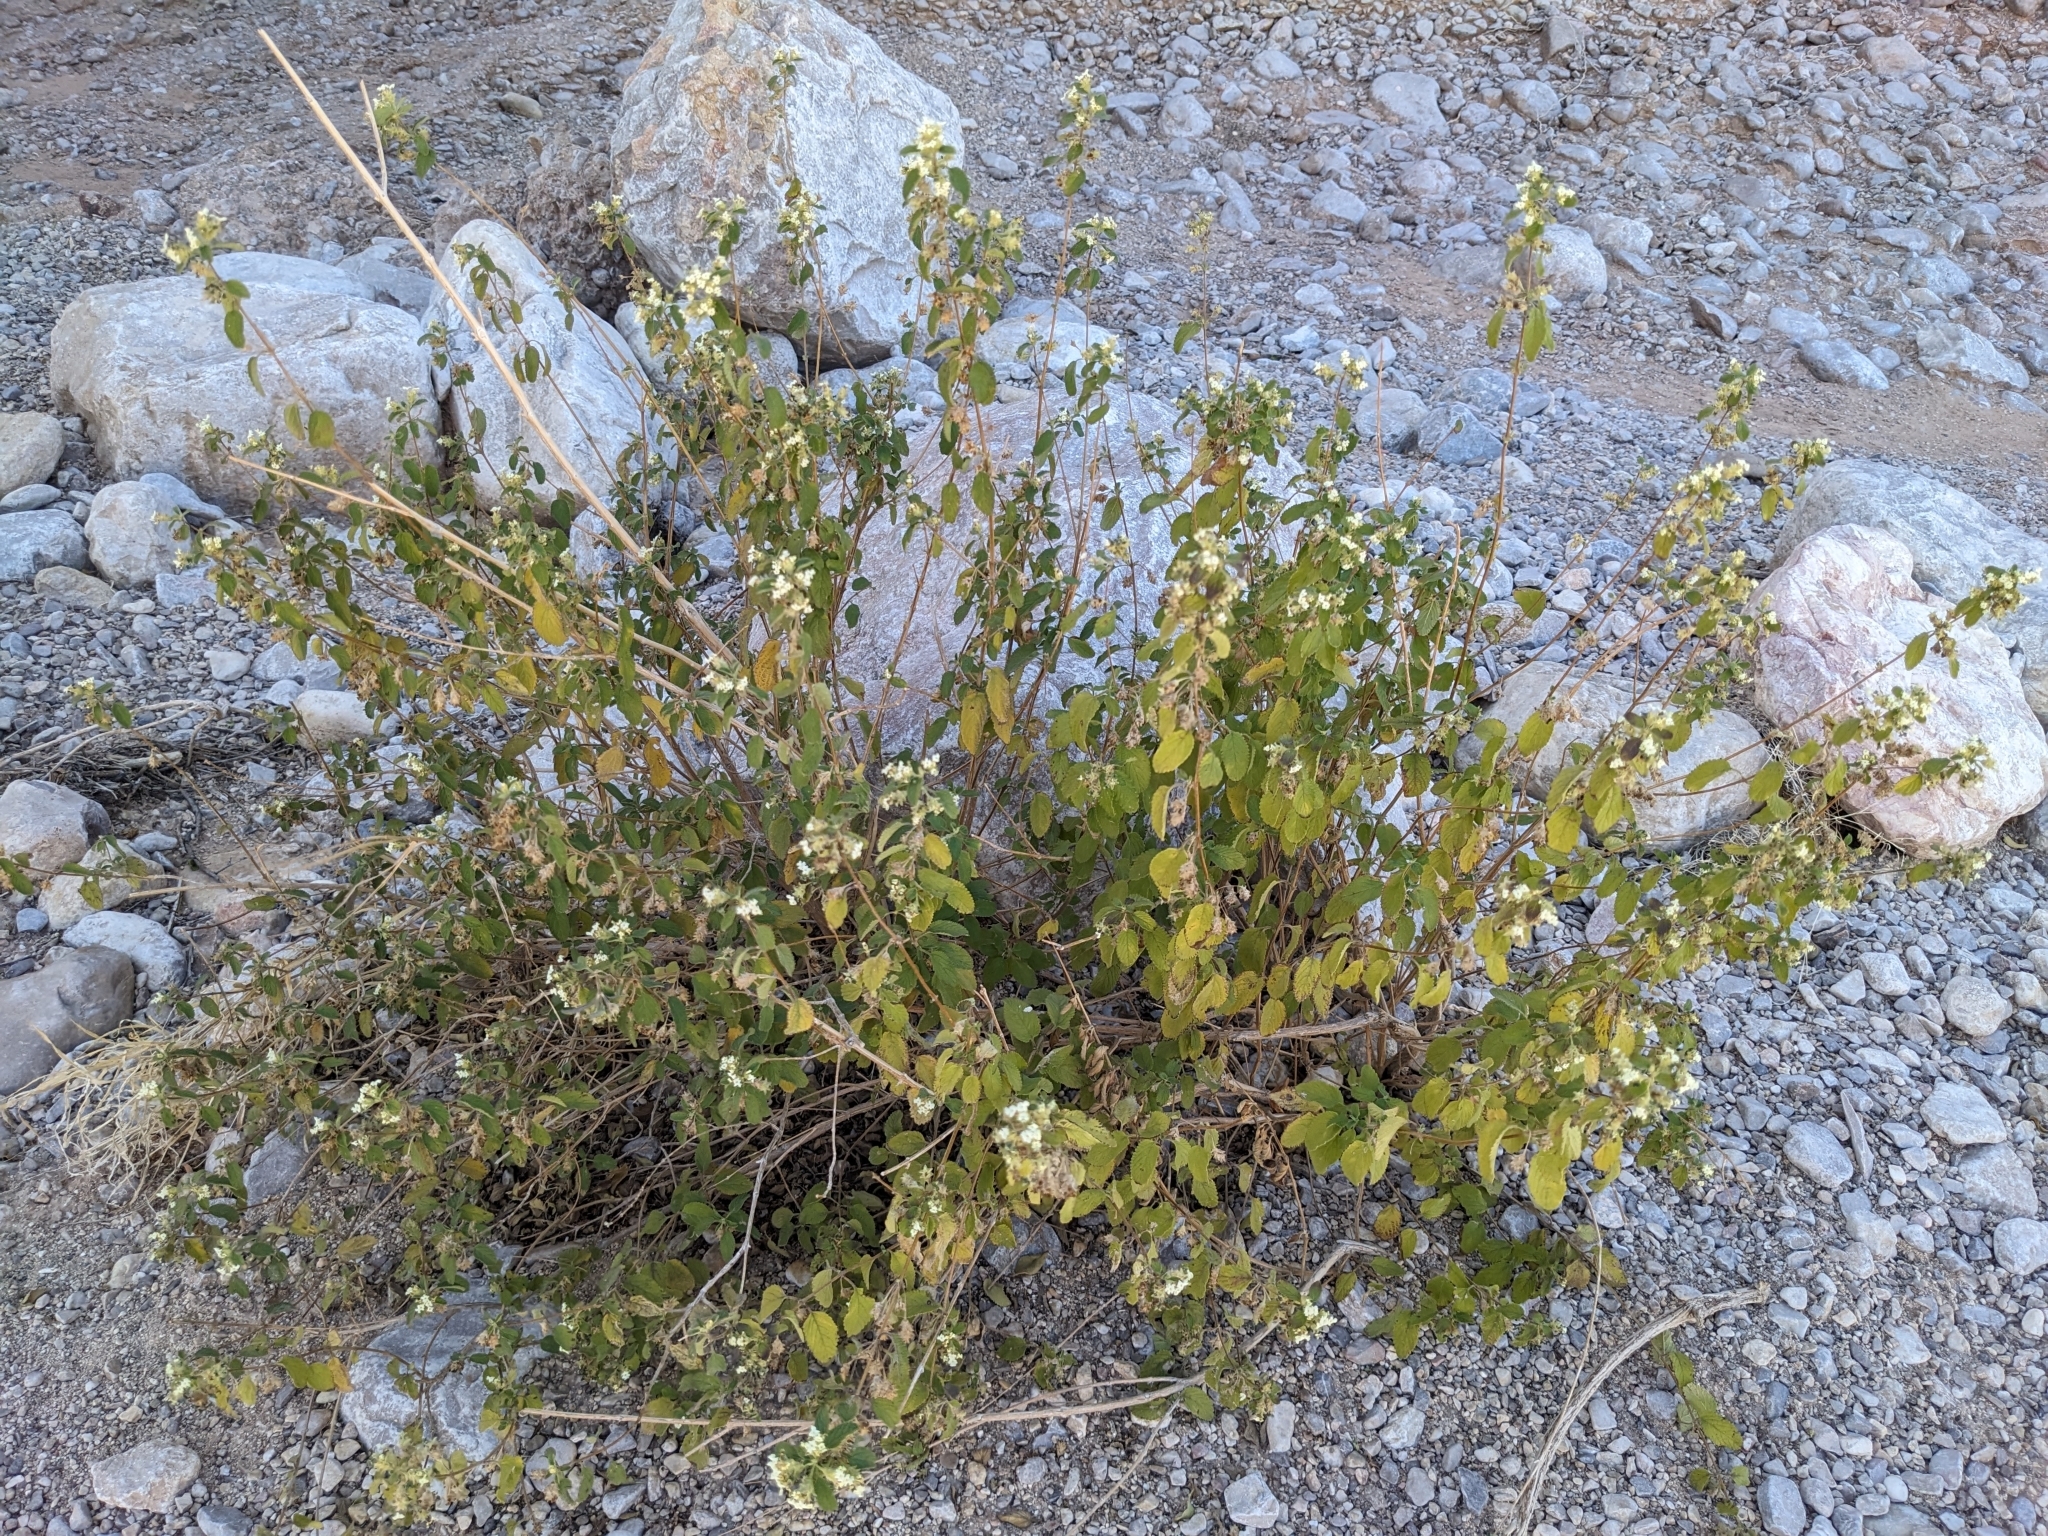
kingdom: Plantae
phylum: Tracheophyta
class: Magnoliopsida
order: Lamiales
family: Verbenaceae
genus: Lippia
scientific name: Lippia origanoides
